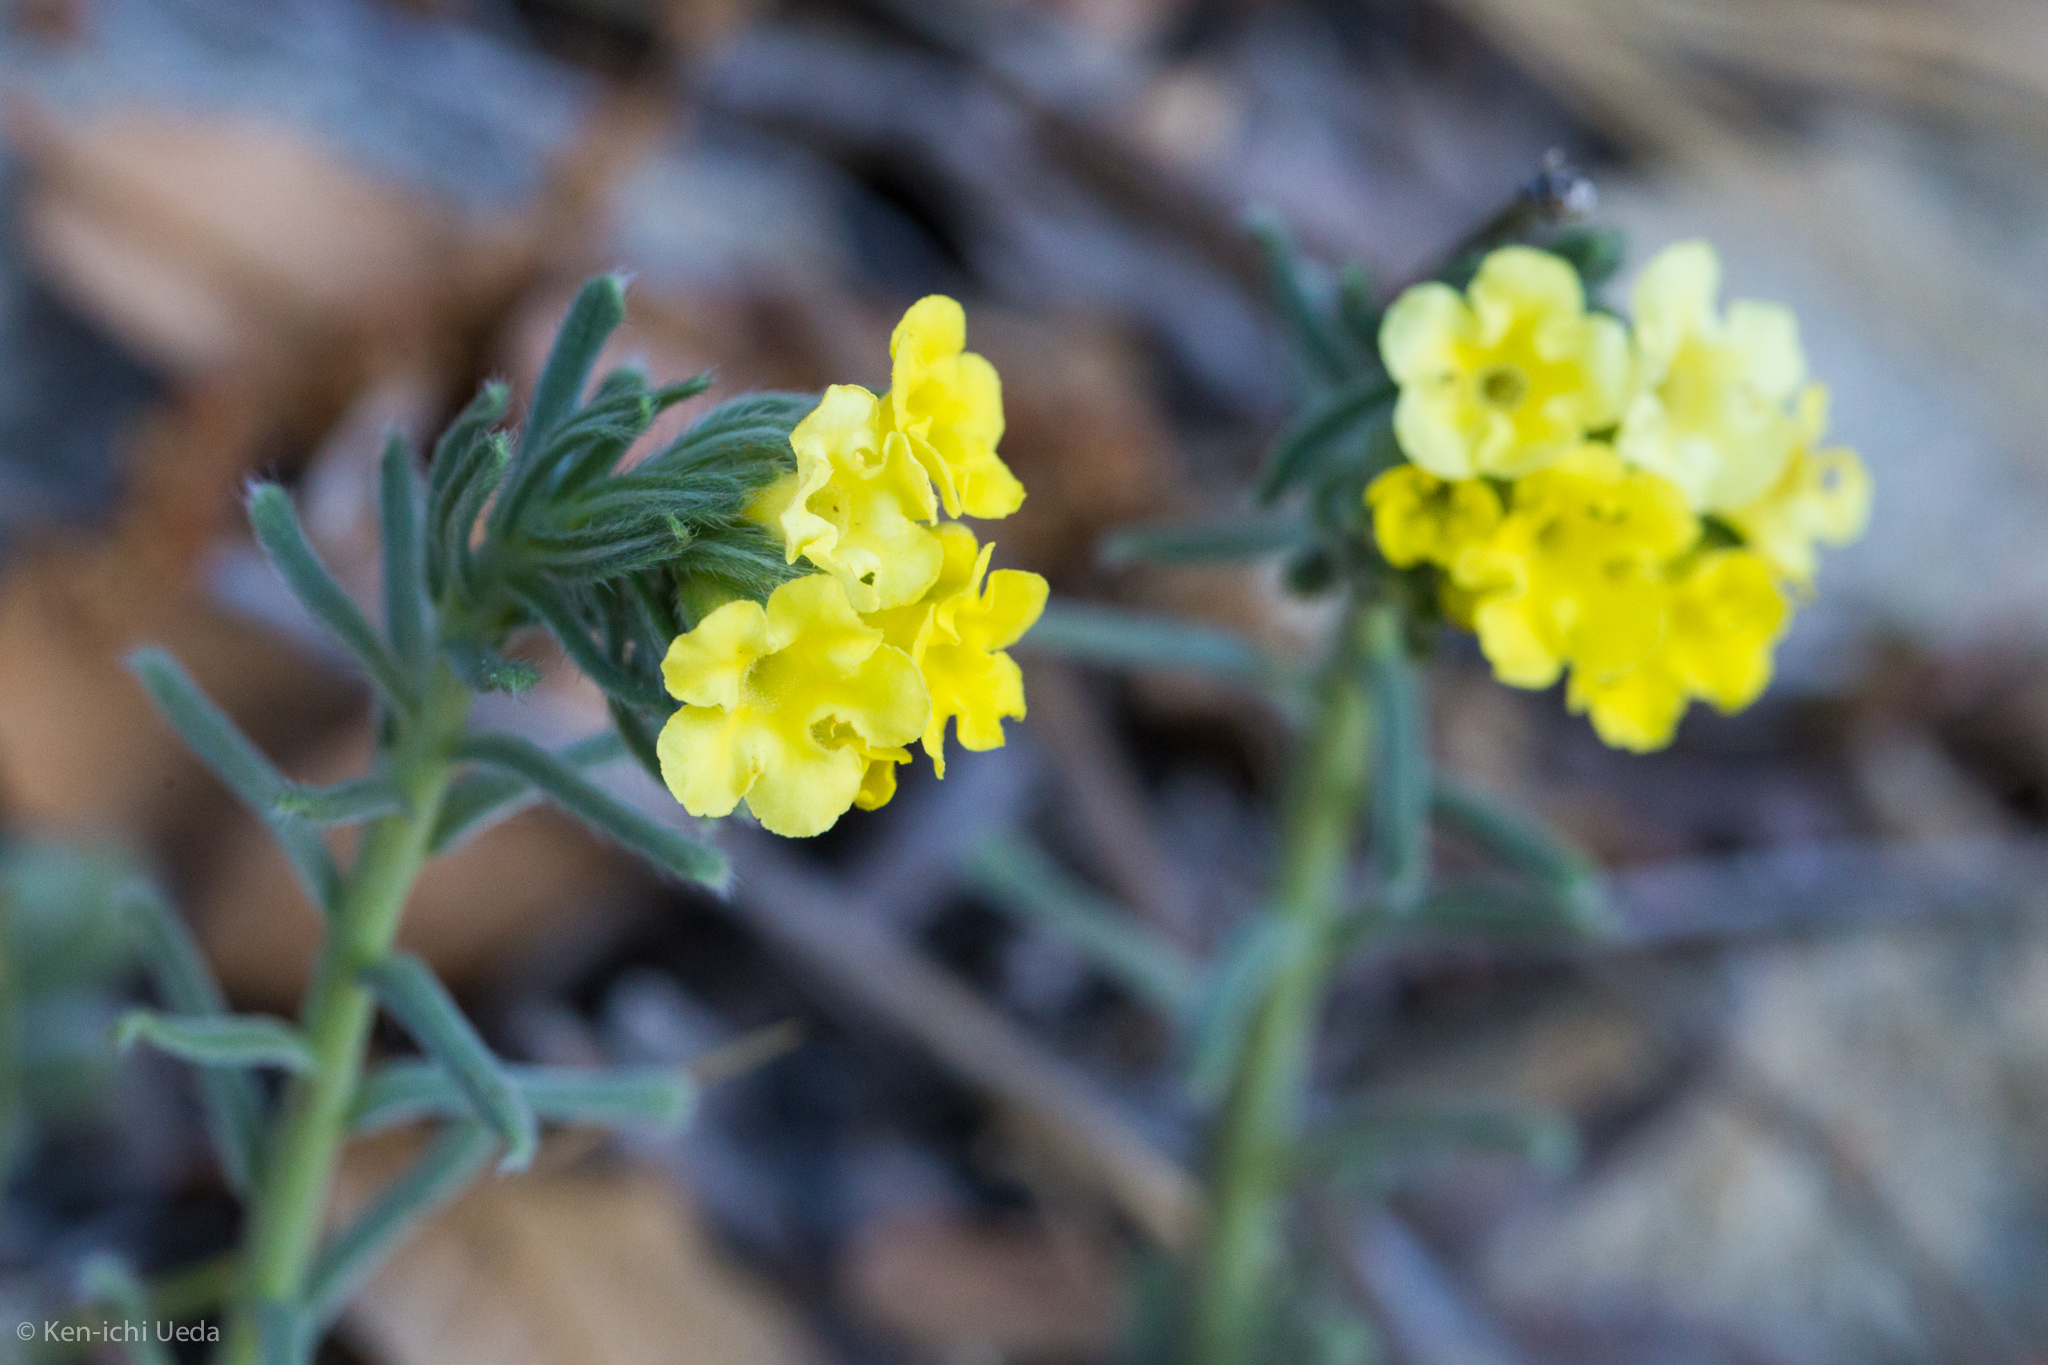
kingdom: Plantae
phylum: Tracheophyta
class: Magnoliopsida
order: Boraginales
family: Boraginaceae
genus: Lithospermum
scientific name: Lithospermum cobrense
